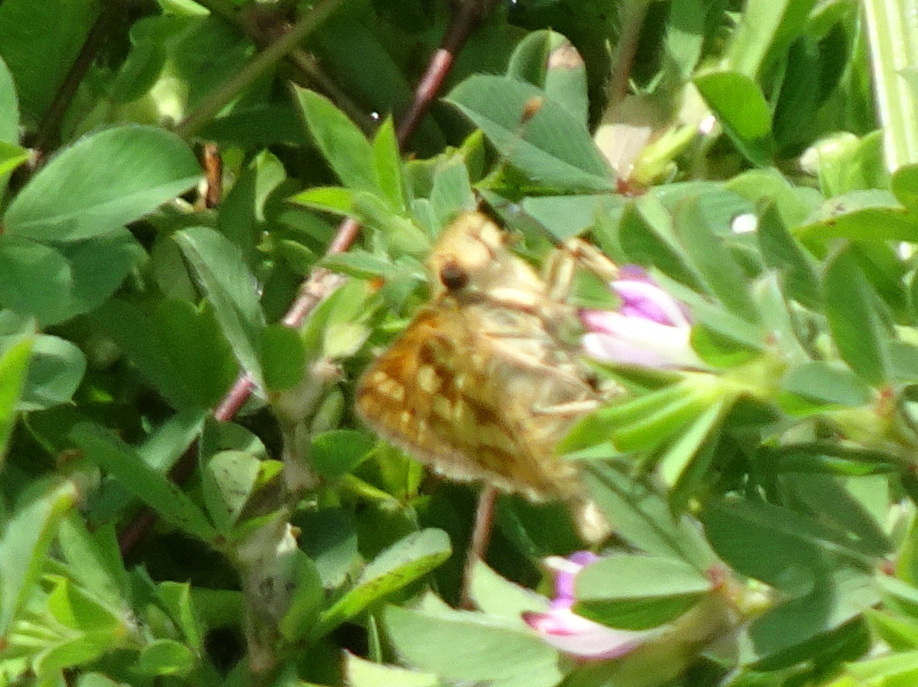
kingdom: Animalia
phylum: Arthropoda
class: Insecta
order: Lepidoptera
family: Hesperiidae
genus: Polites
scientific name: Polites coras
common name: Peck's skipper
